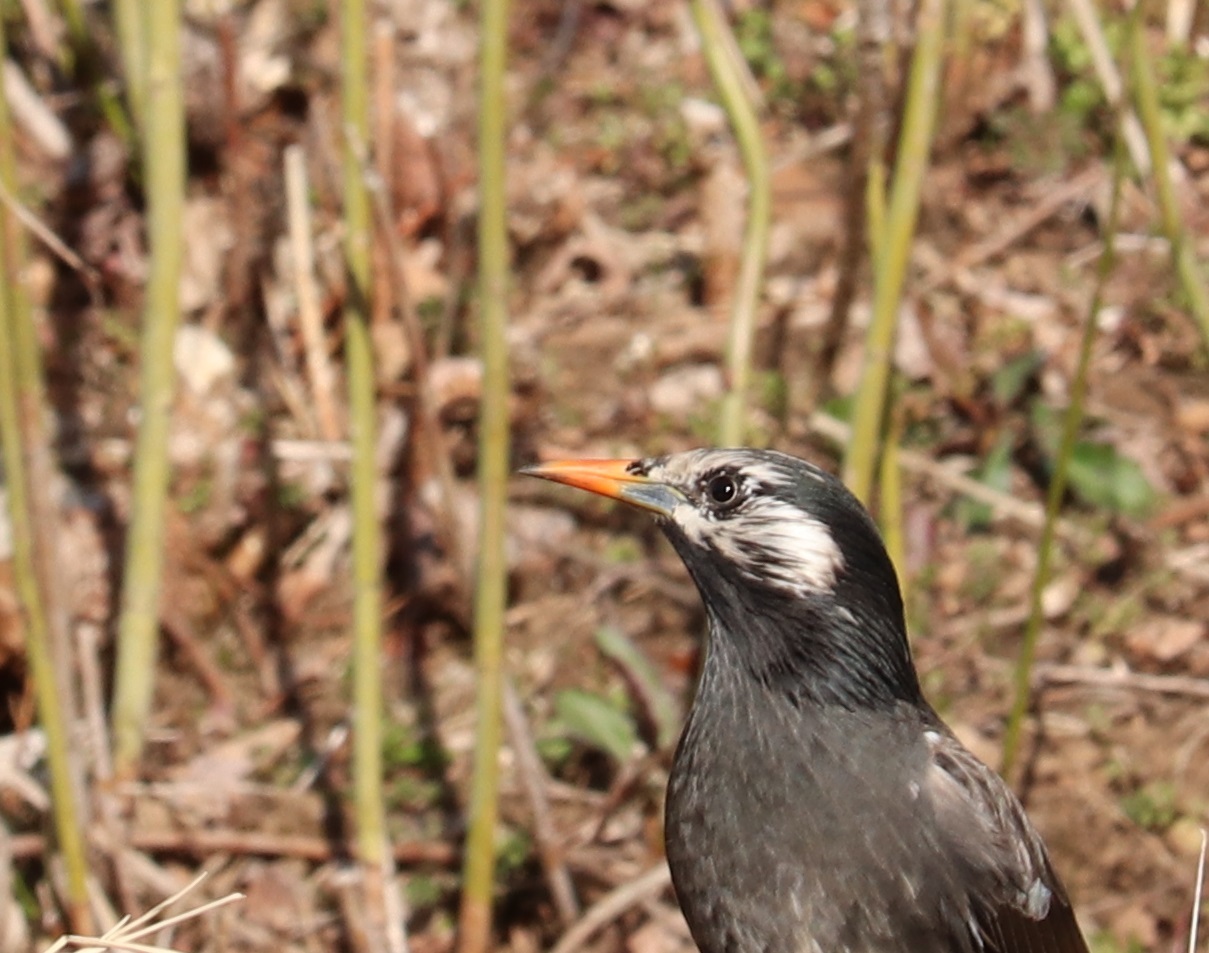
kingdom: Animalia
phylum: Chordata
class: Aves
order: Passeriformes
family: Sturnidae
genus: Spodiopsar
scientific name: Spodiopsar cineraceus
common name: White-cheeked starling
